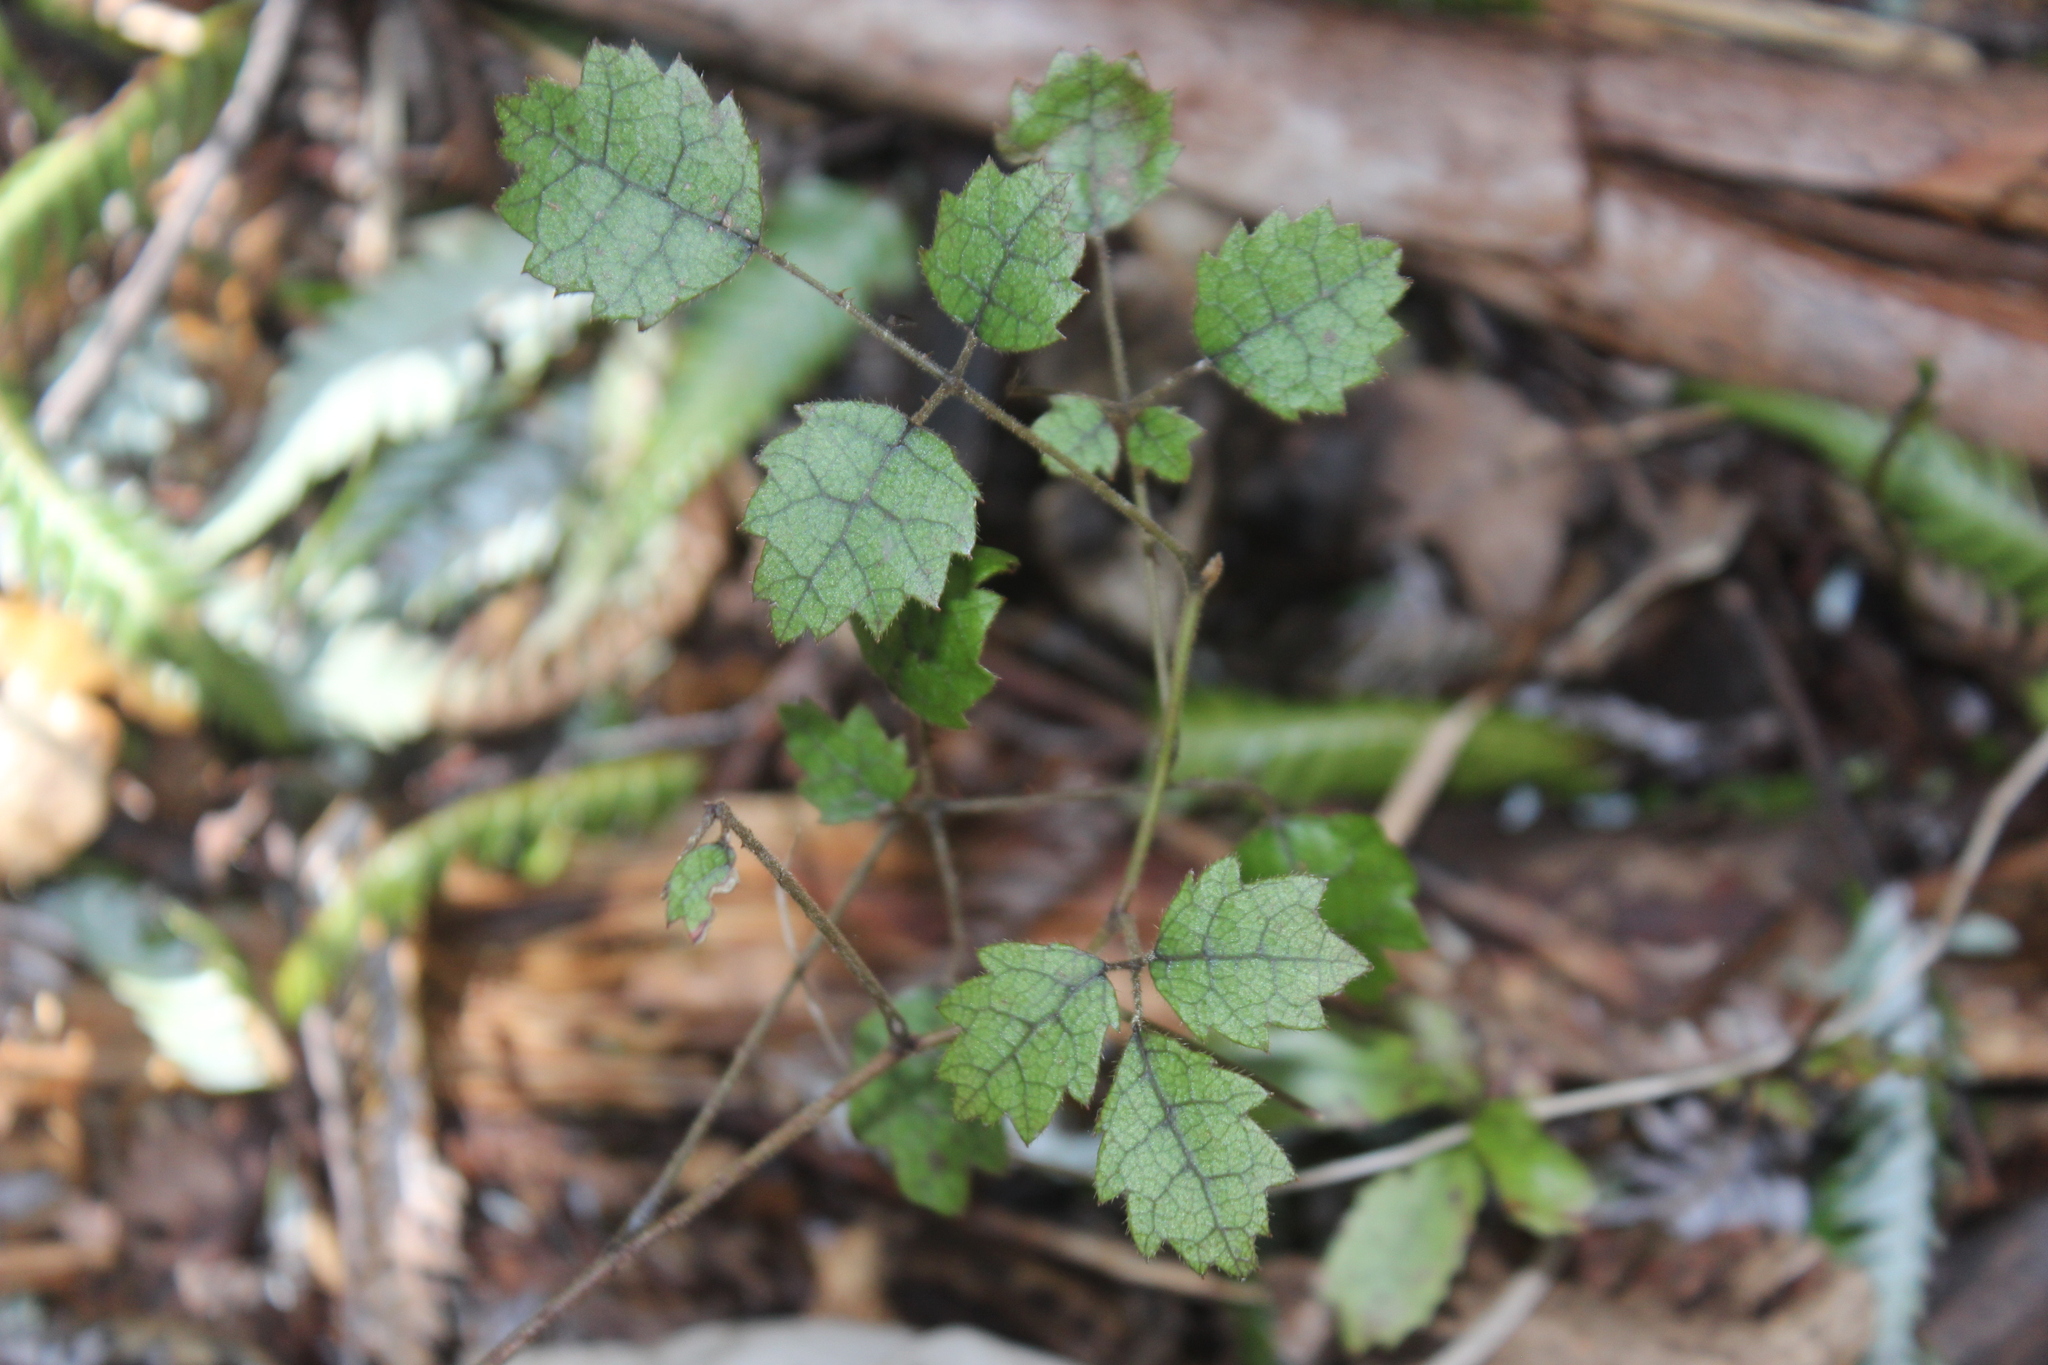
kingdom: Plantae
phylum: Tracheophyta
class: Magnoliopsida
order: Rosales
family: Rosaceae
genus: Rubus
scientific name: Rubus australis
